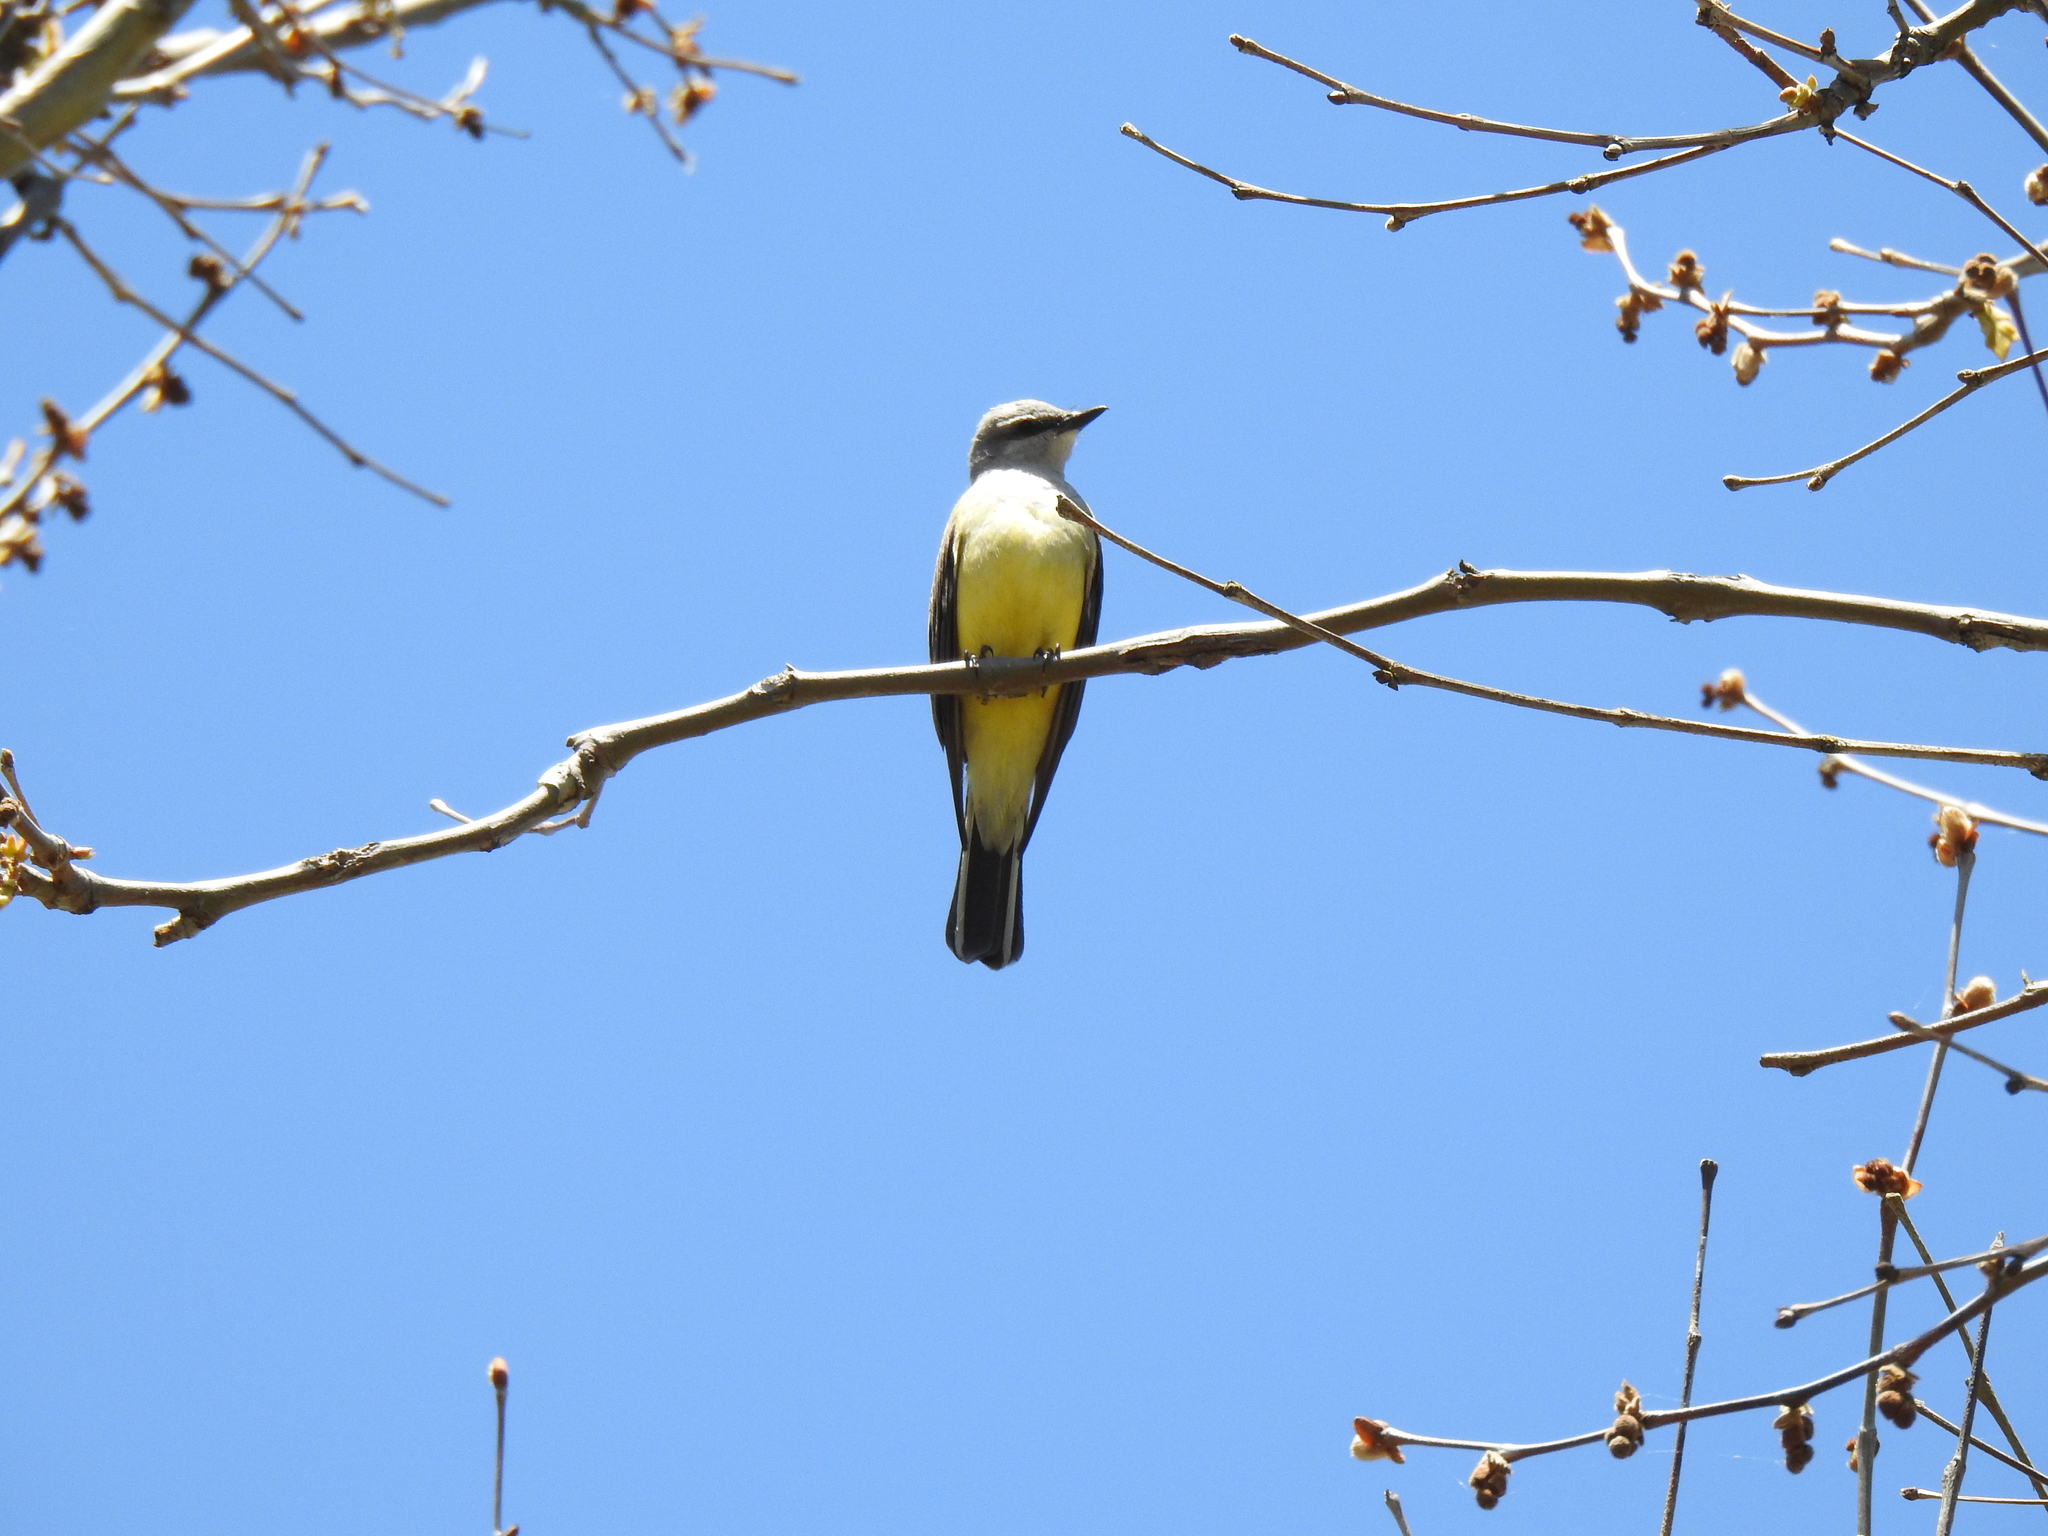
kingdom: Animalia
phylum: Chordata
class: Aves
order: Passeriformes
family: Tyrannidae
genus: Tyrannus
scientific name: Tyrannus verticalis
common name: Western kingbird
